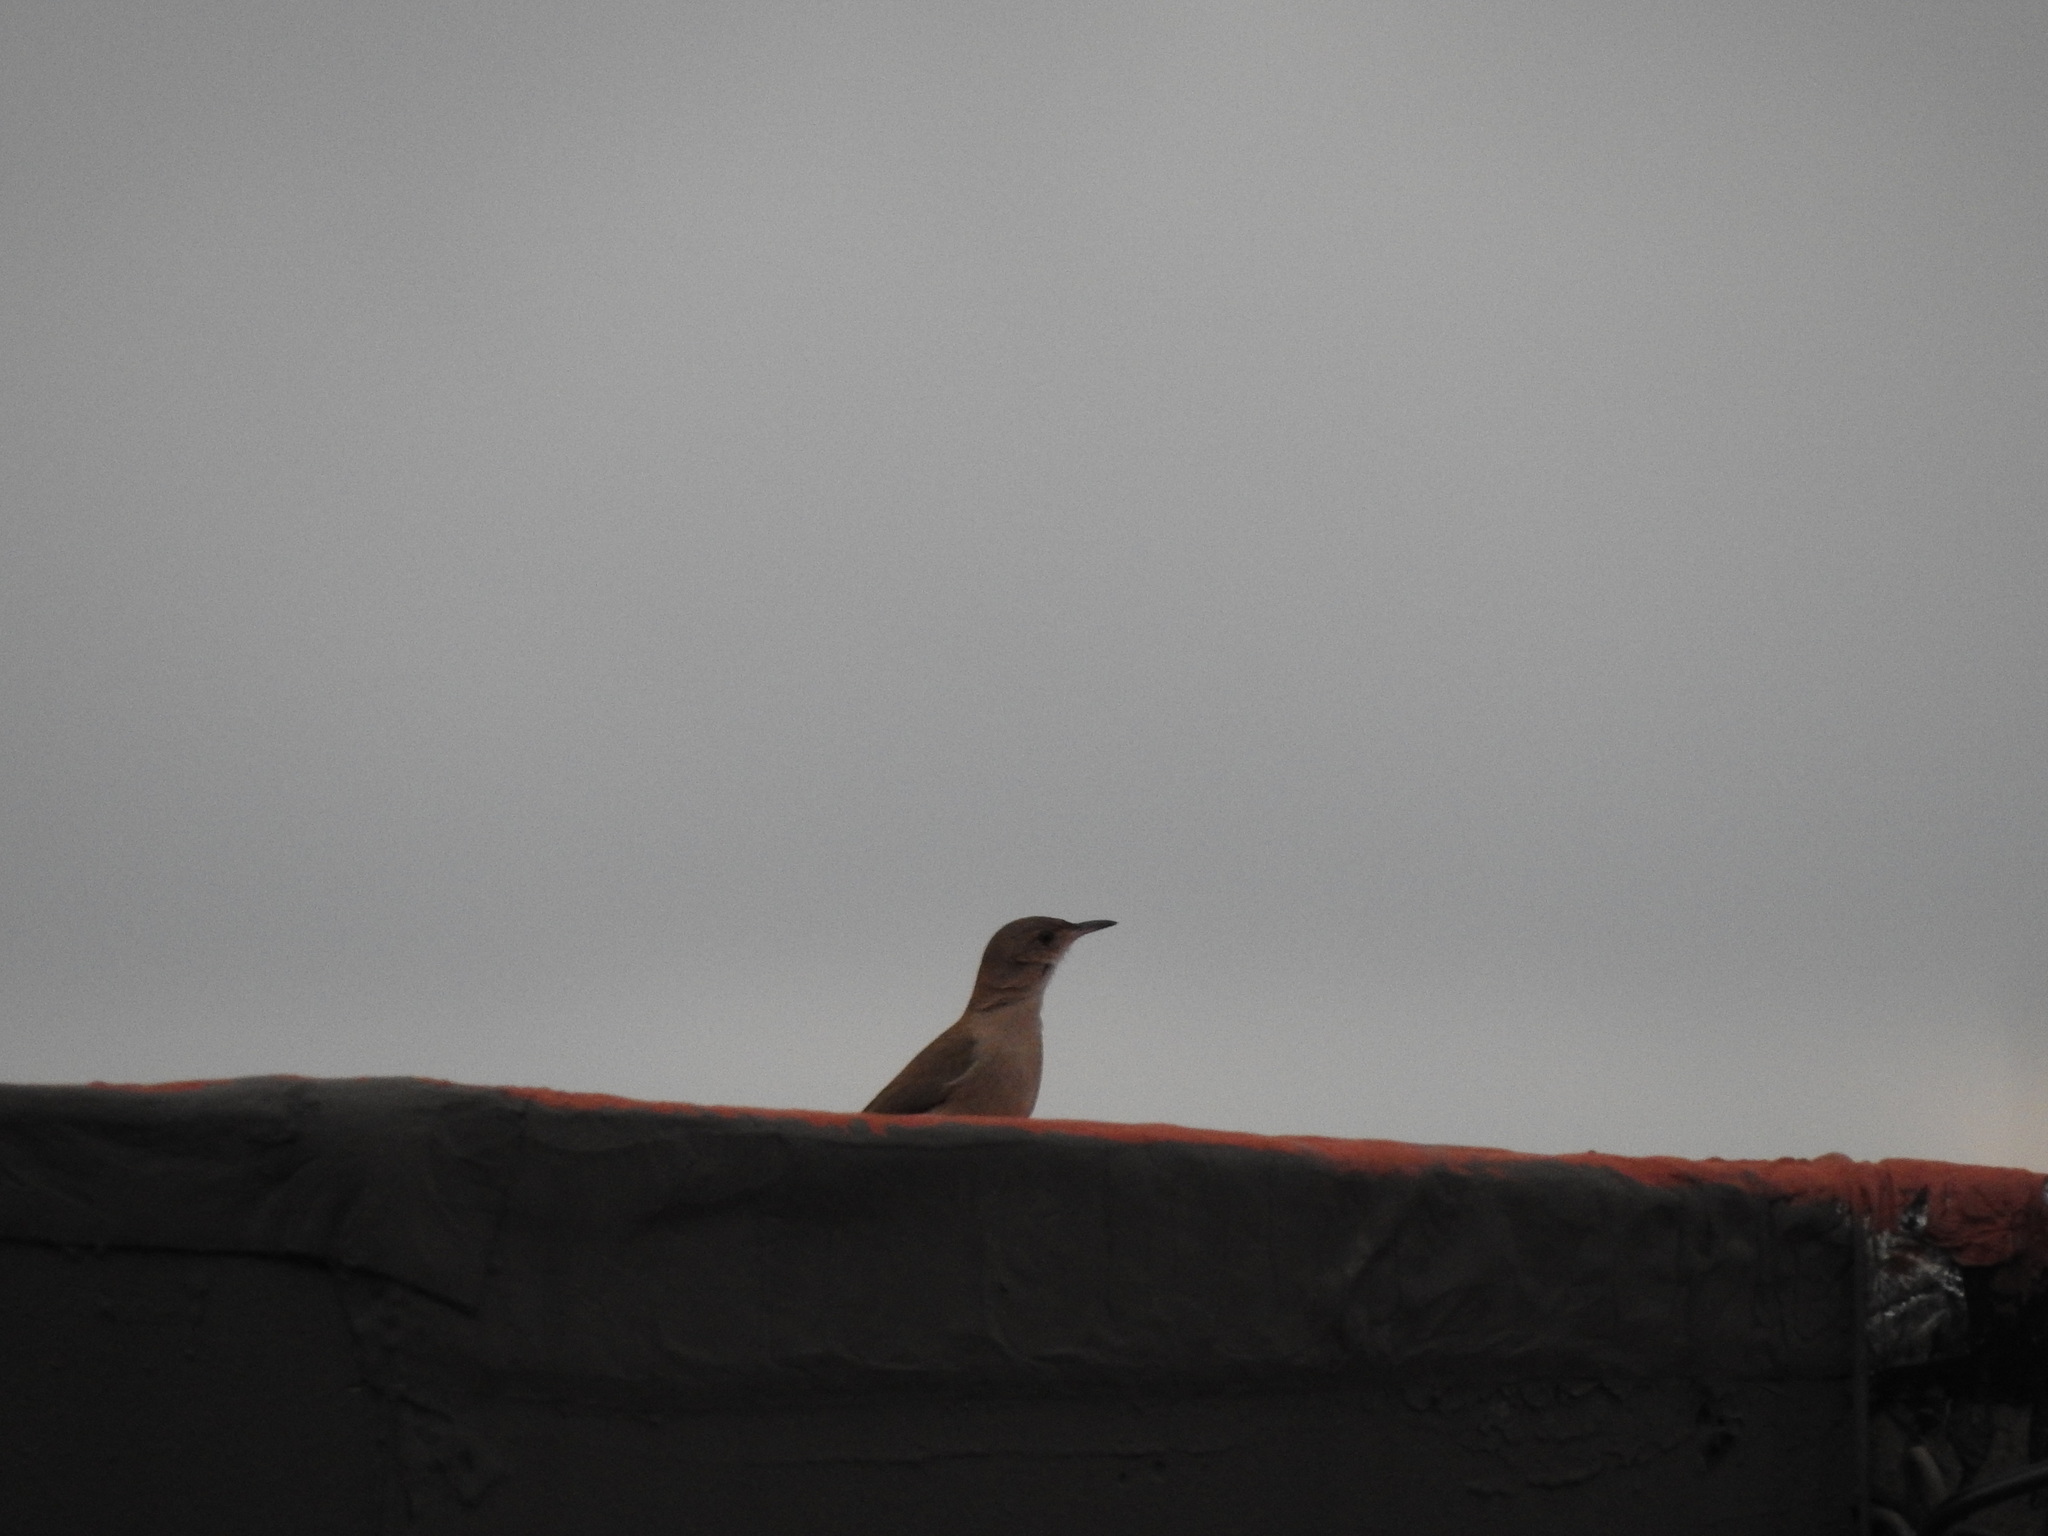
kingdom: Animalia
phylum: Chordata
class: Aves
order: Passeriformes
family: Furnariidae
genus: Furnarius
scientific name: Furnarius rufus
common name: Rufous hornero
